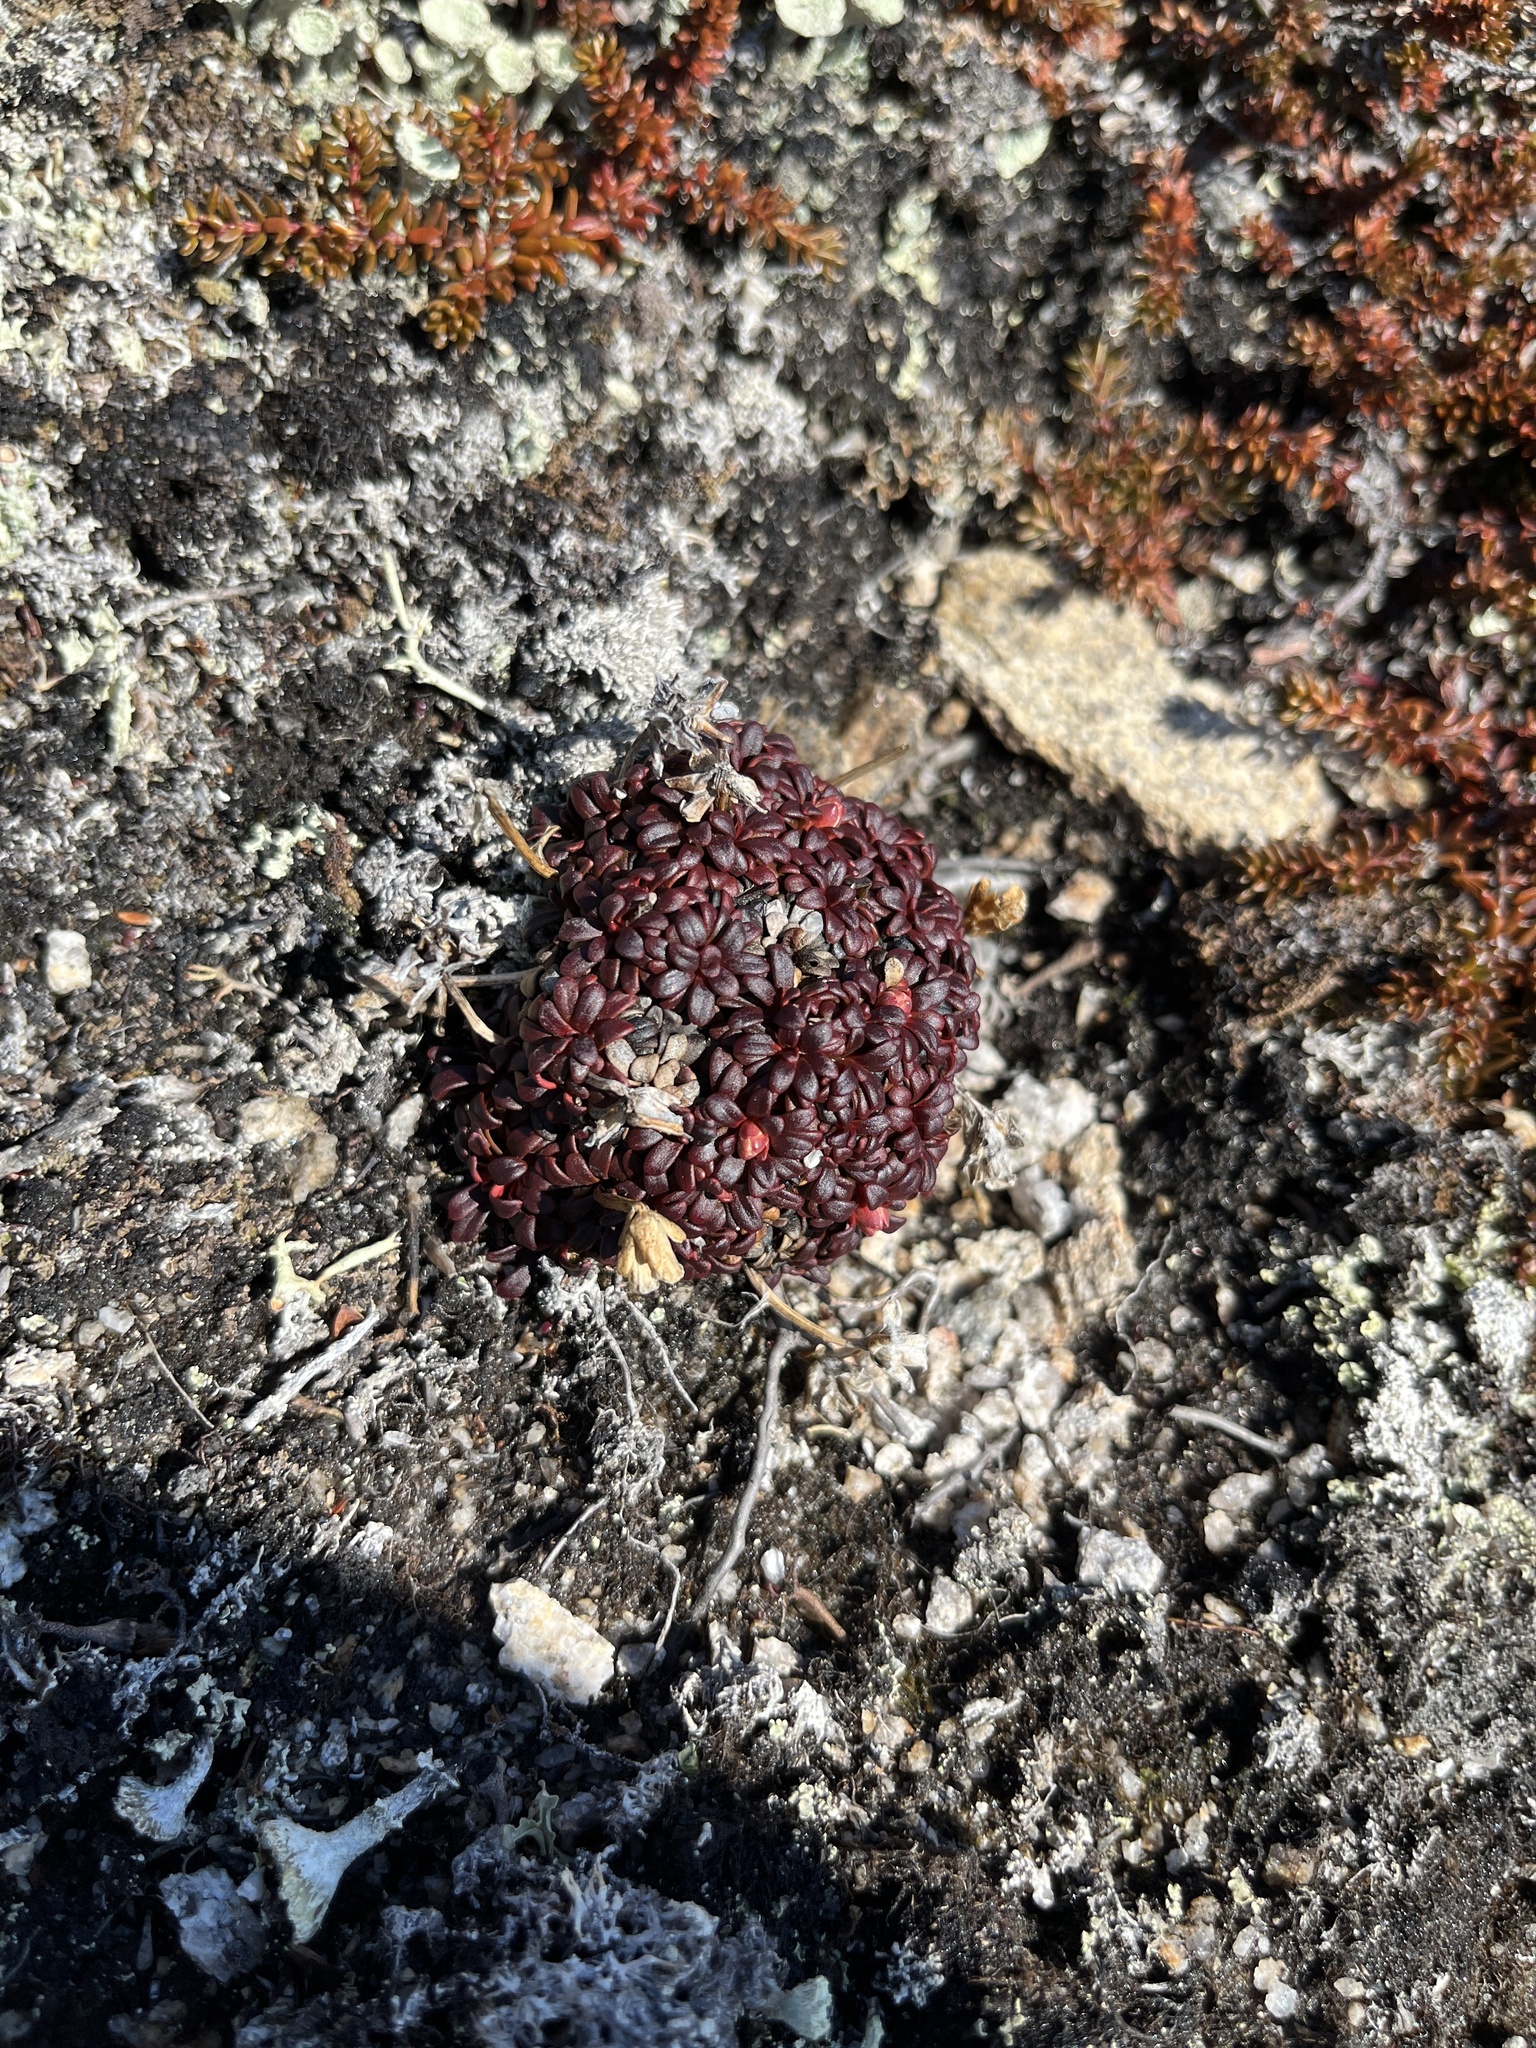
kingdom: Plantae
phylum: Tracheophyta
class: Magnoliopsida
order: Ericales
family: Diapensiaceae
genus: Diapensia
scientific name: Diapensia lapponica
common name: Diapensia
